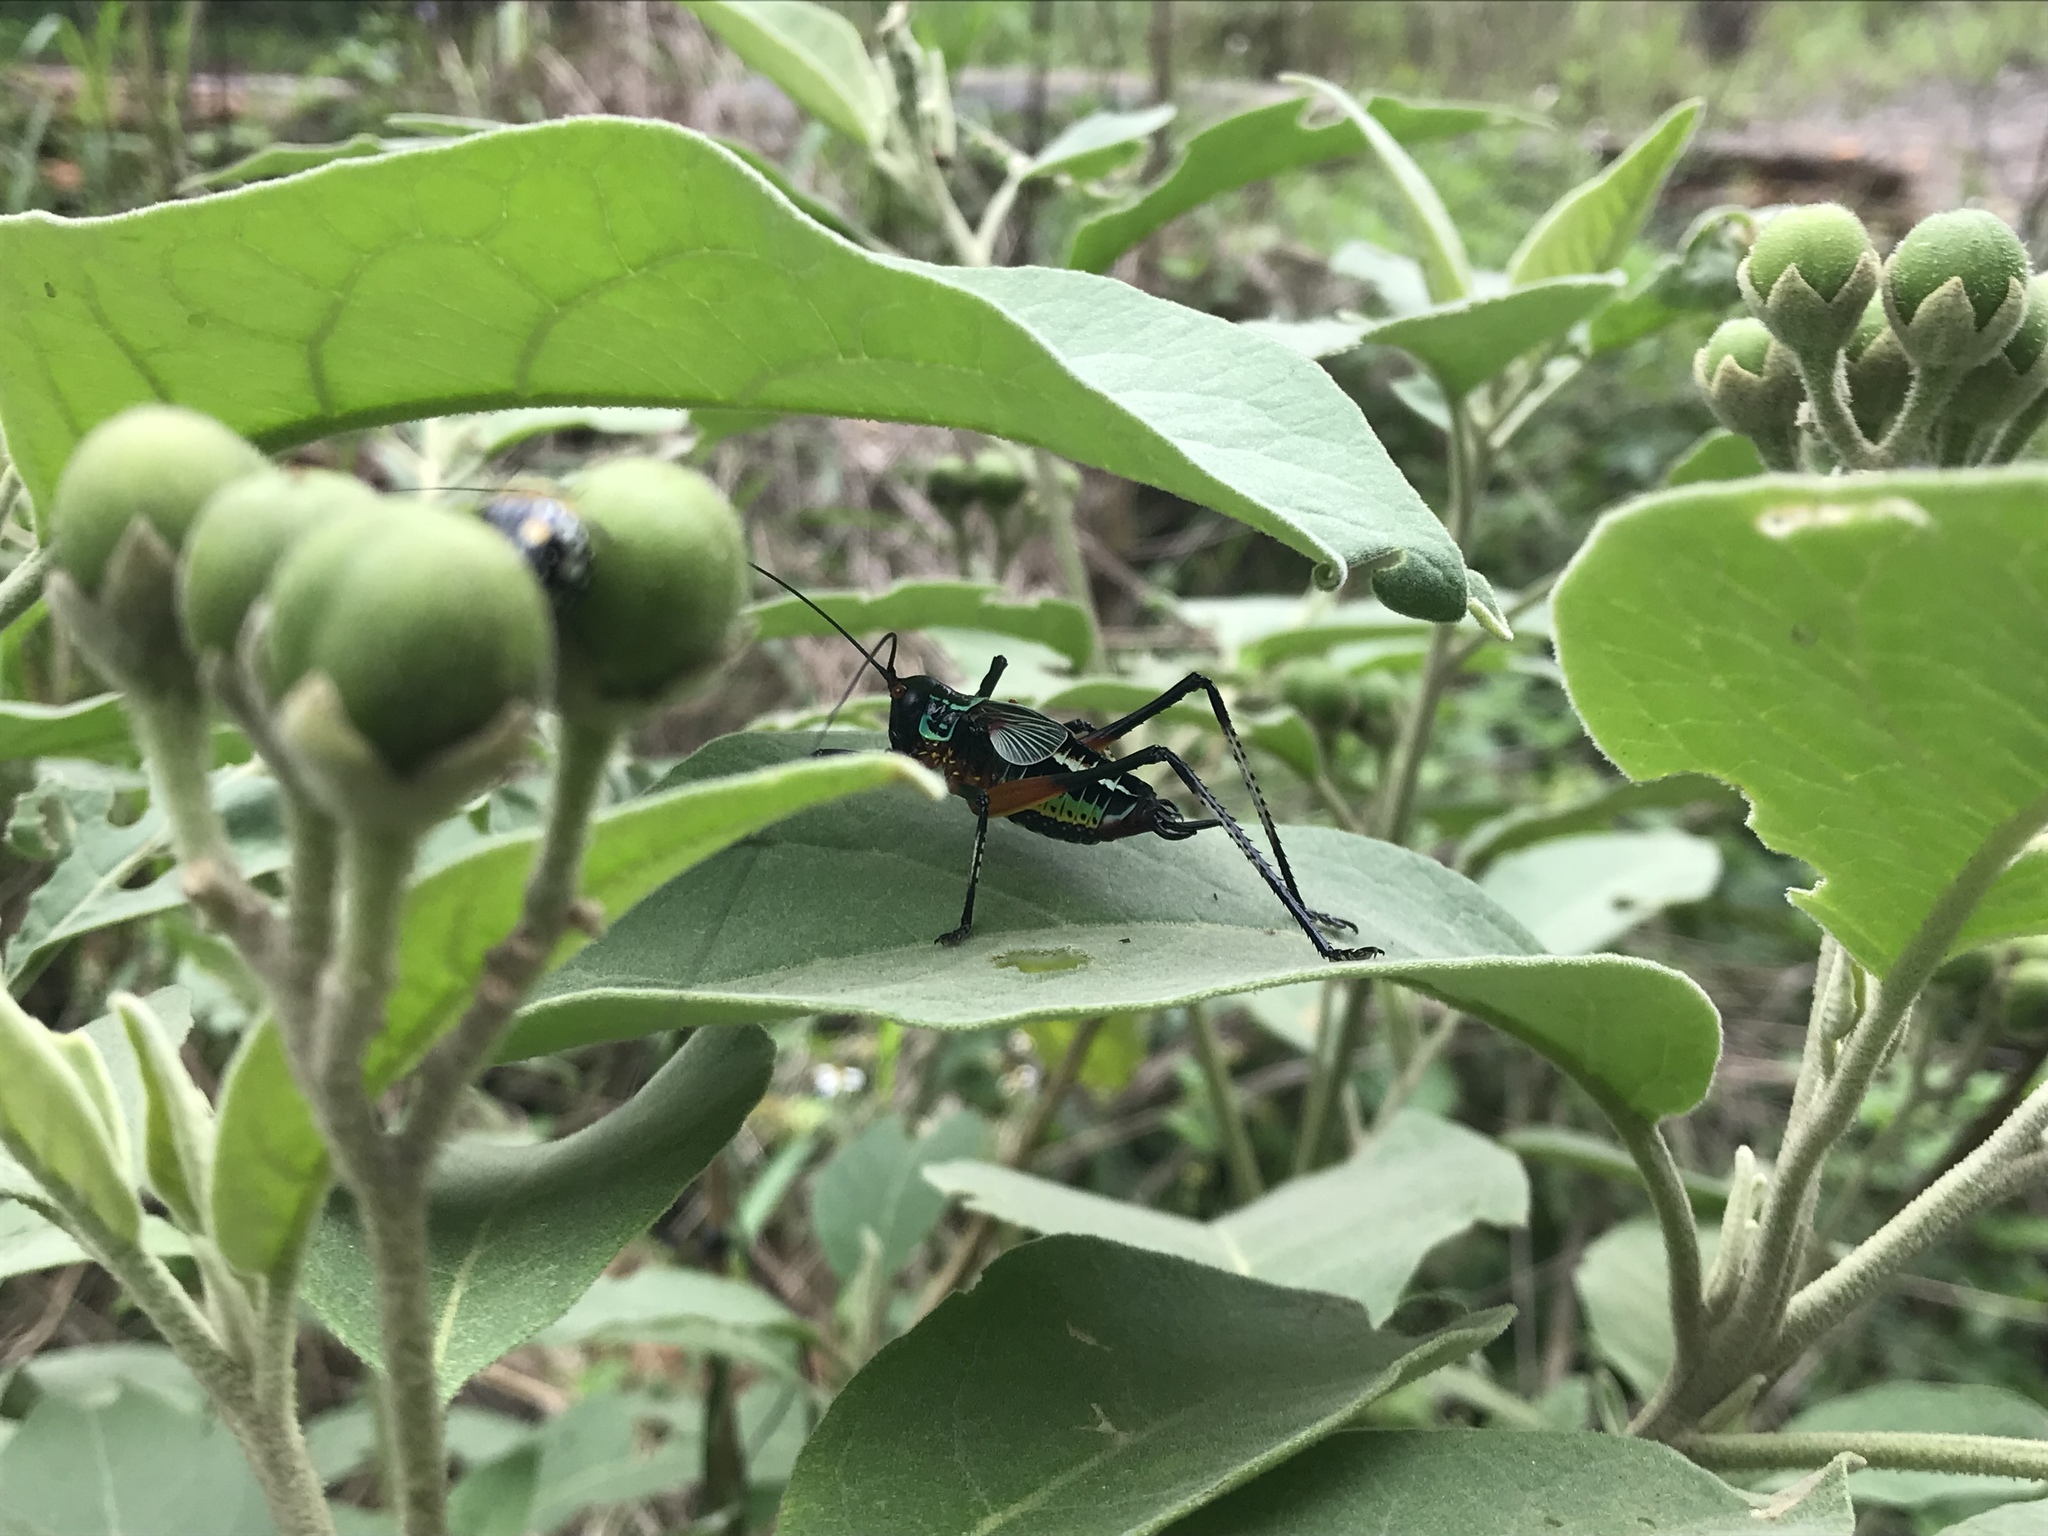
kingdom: Animalia
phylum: Arthropoda
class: Insecta
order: Orthoptera
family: Tettigoniidae
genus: Pterophylla
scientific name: Pterophylla beltrani
